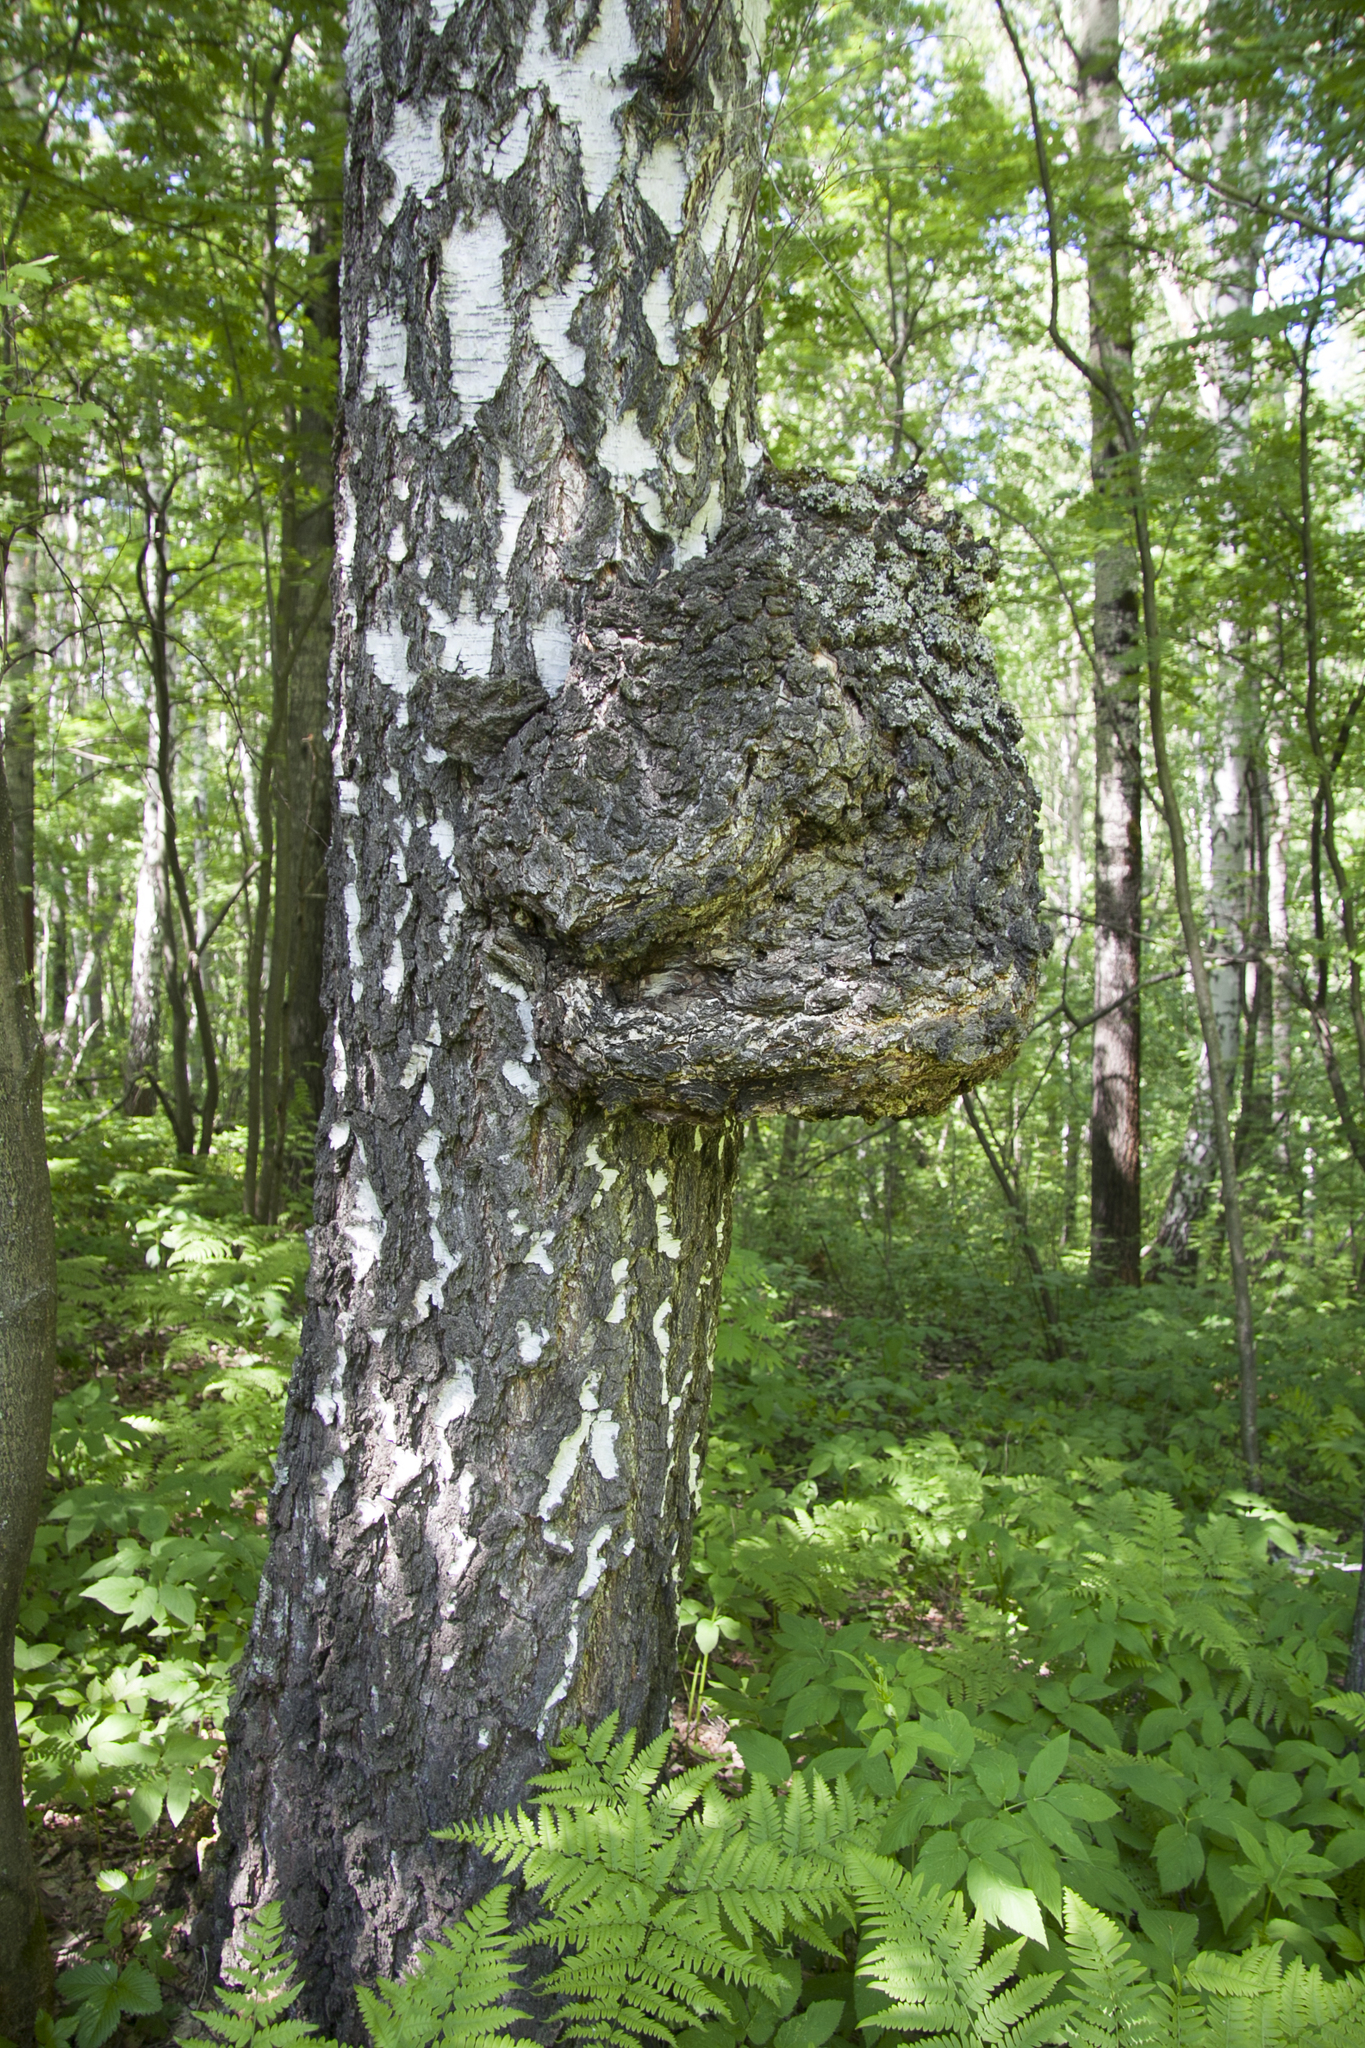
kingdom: Plantae
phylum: Tracheophyta
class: Magnoliopsida
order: Fagales
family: Betulaceae
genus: Betula
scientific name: Betula pendula
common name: Silver birch
